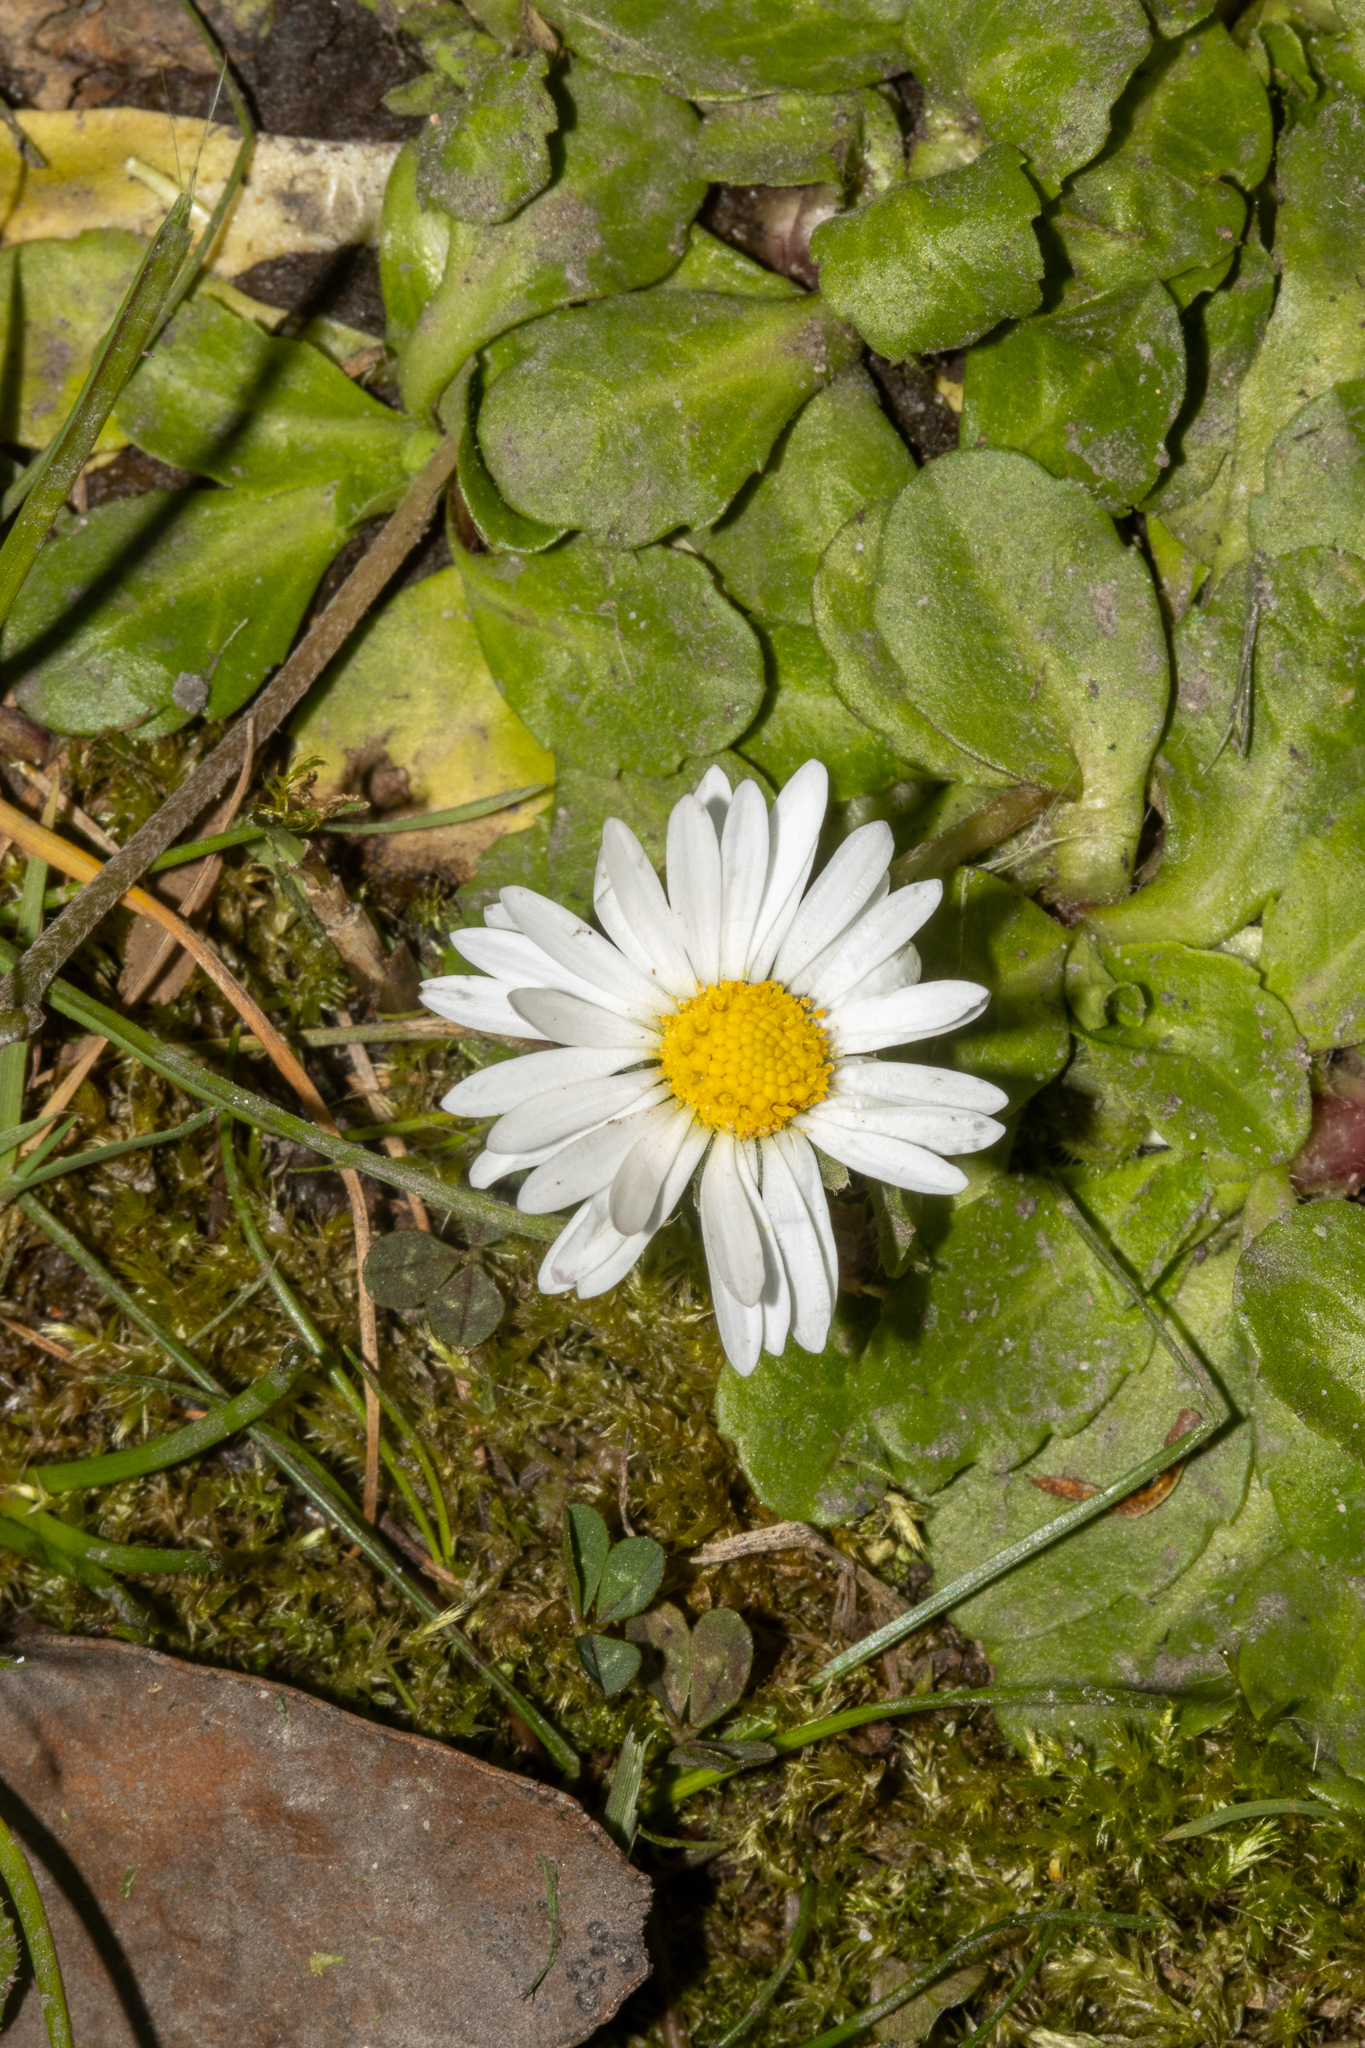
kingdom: Plantae
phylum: Tracheophyta
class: Magnoliopsida
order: Asterales
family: Asteraceae
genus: Bellis
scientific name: Bellis perennis
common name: Lawndaisy
